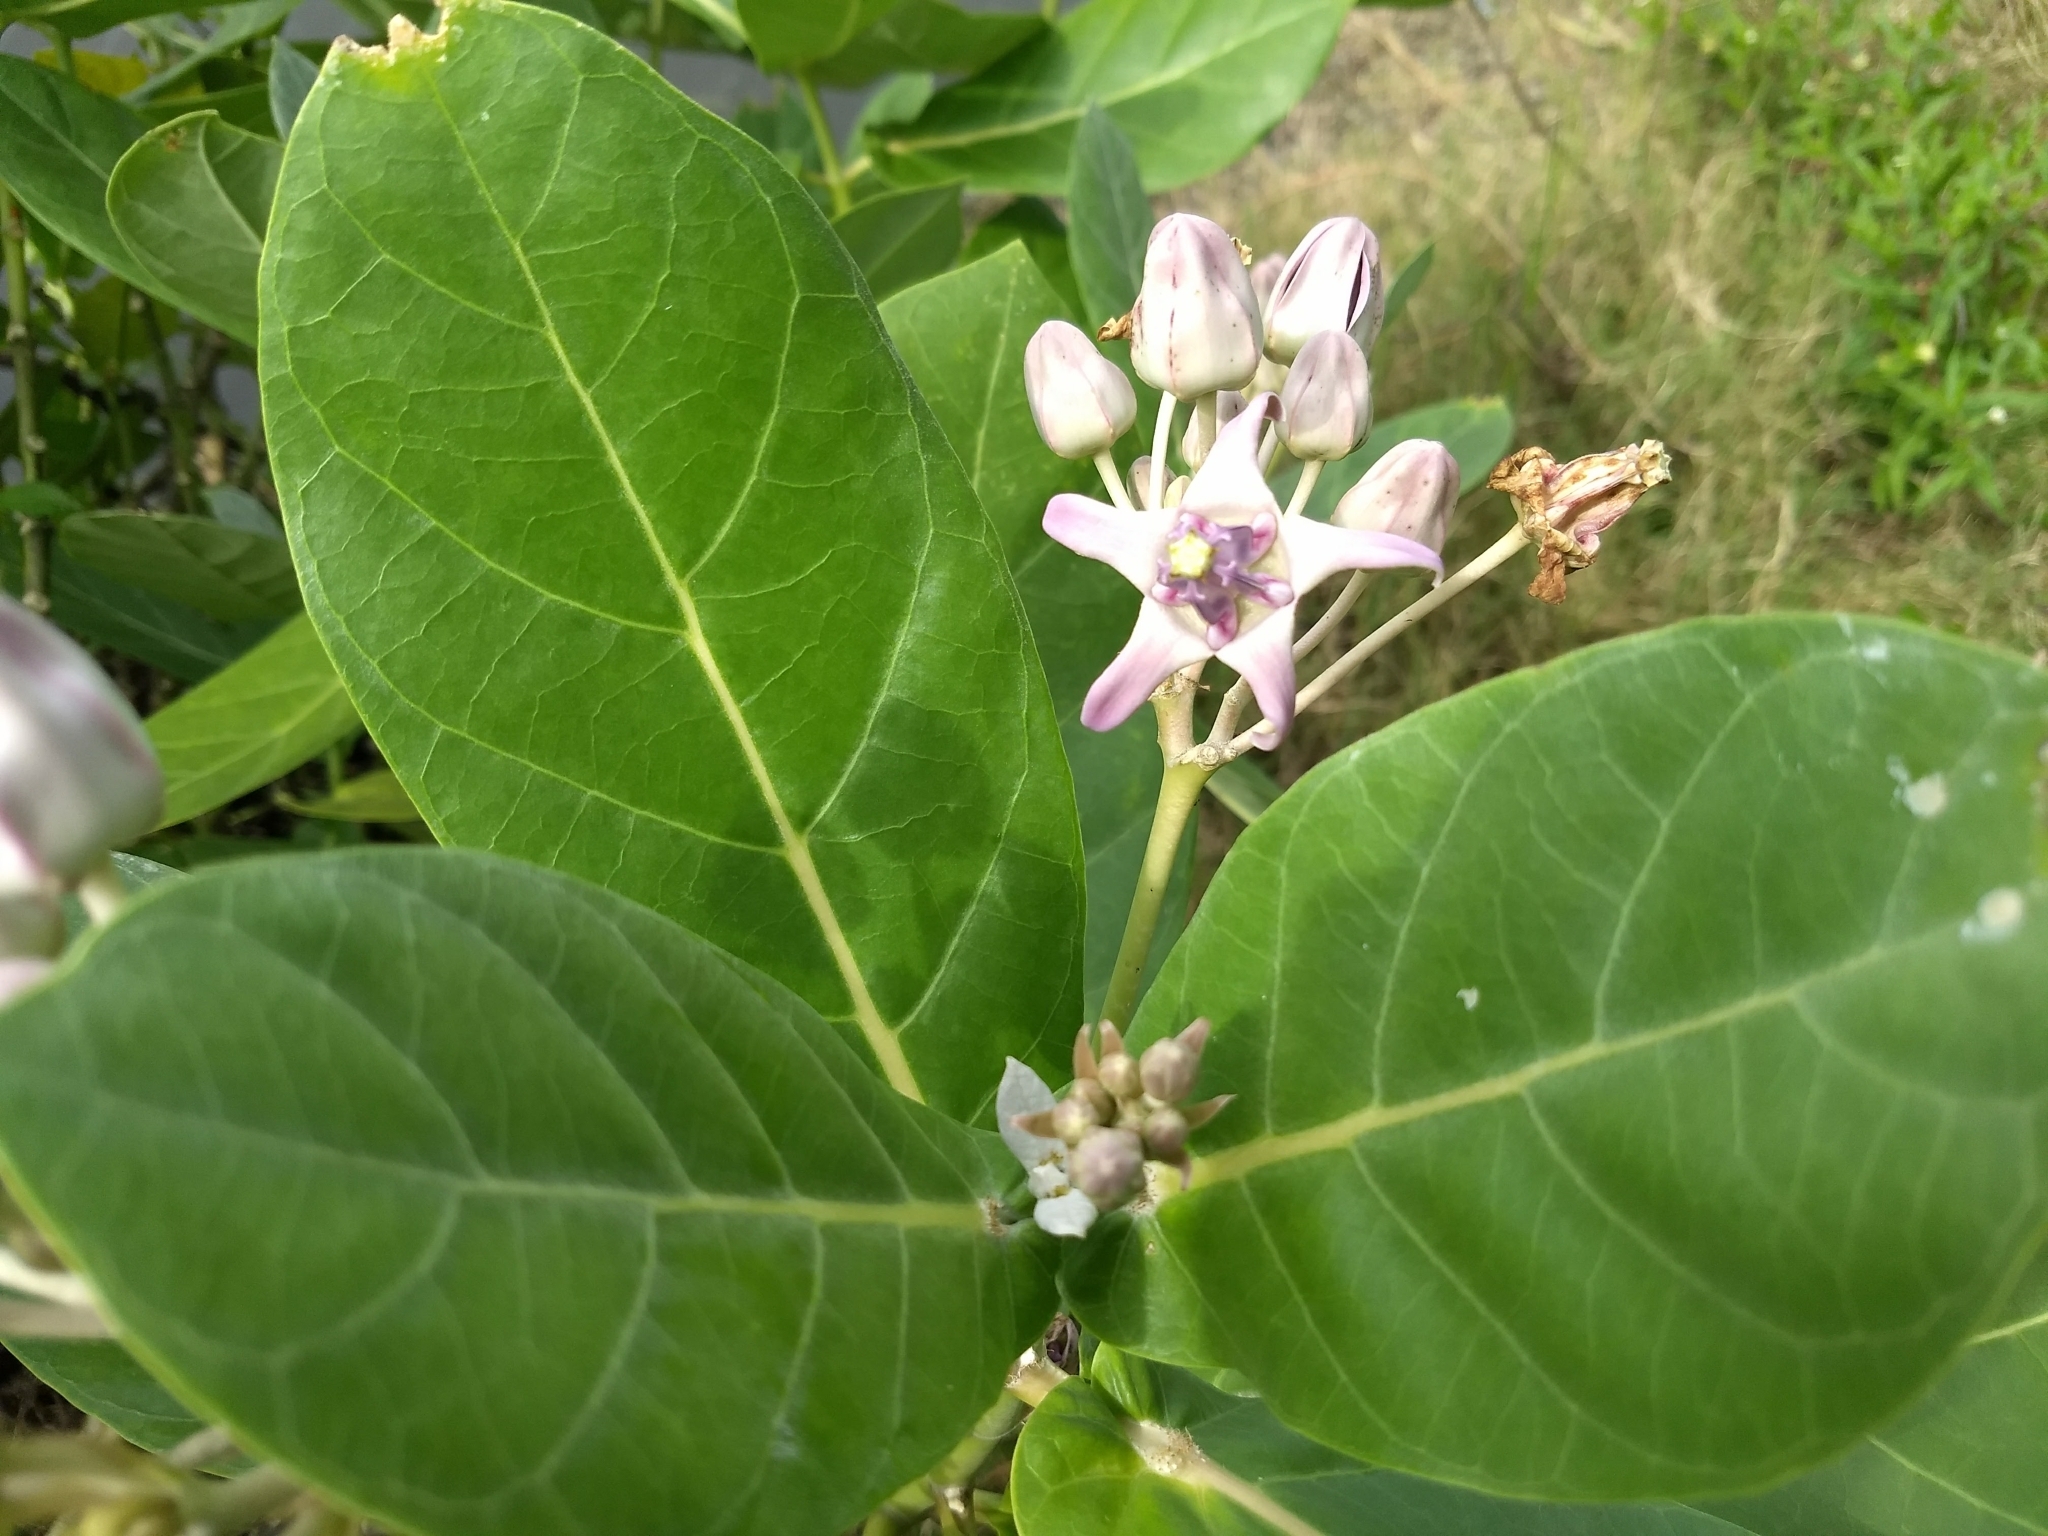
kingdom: Plantae
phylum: Tracheophyta
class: Magnoliopsida
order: Gentianales
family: Apocynaceae
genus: Calotropis
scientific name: Calotropis gigantea
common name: Crown flower
